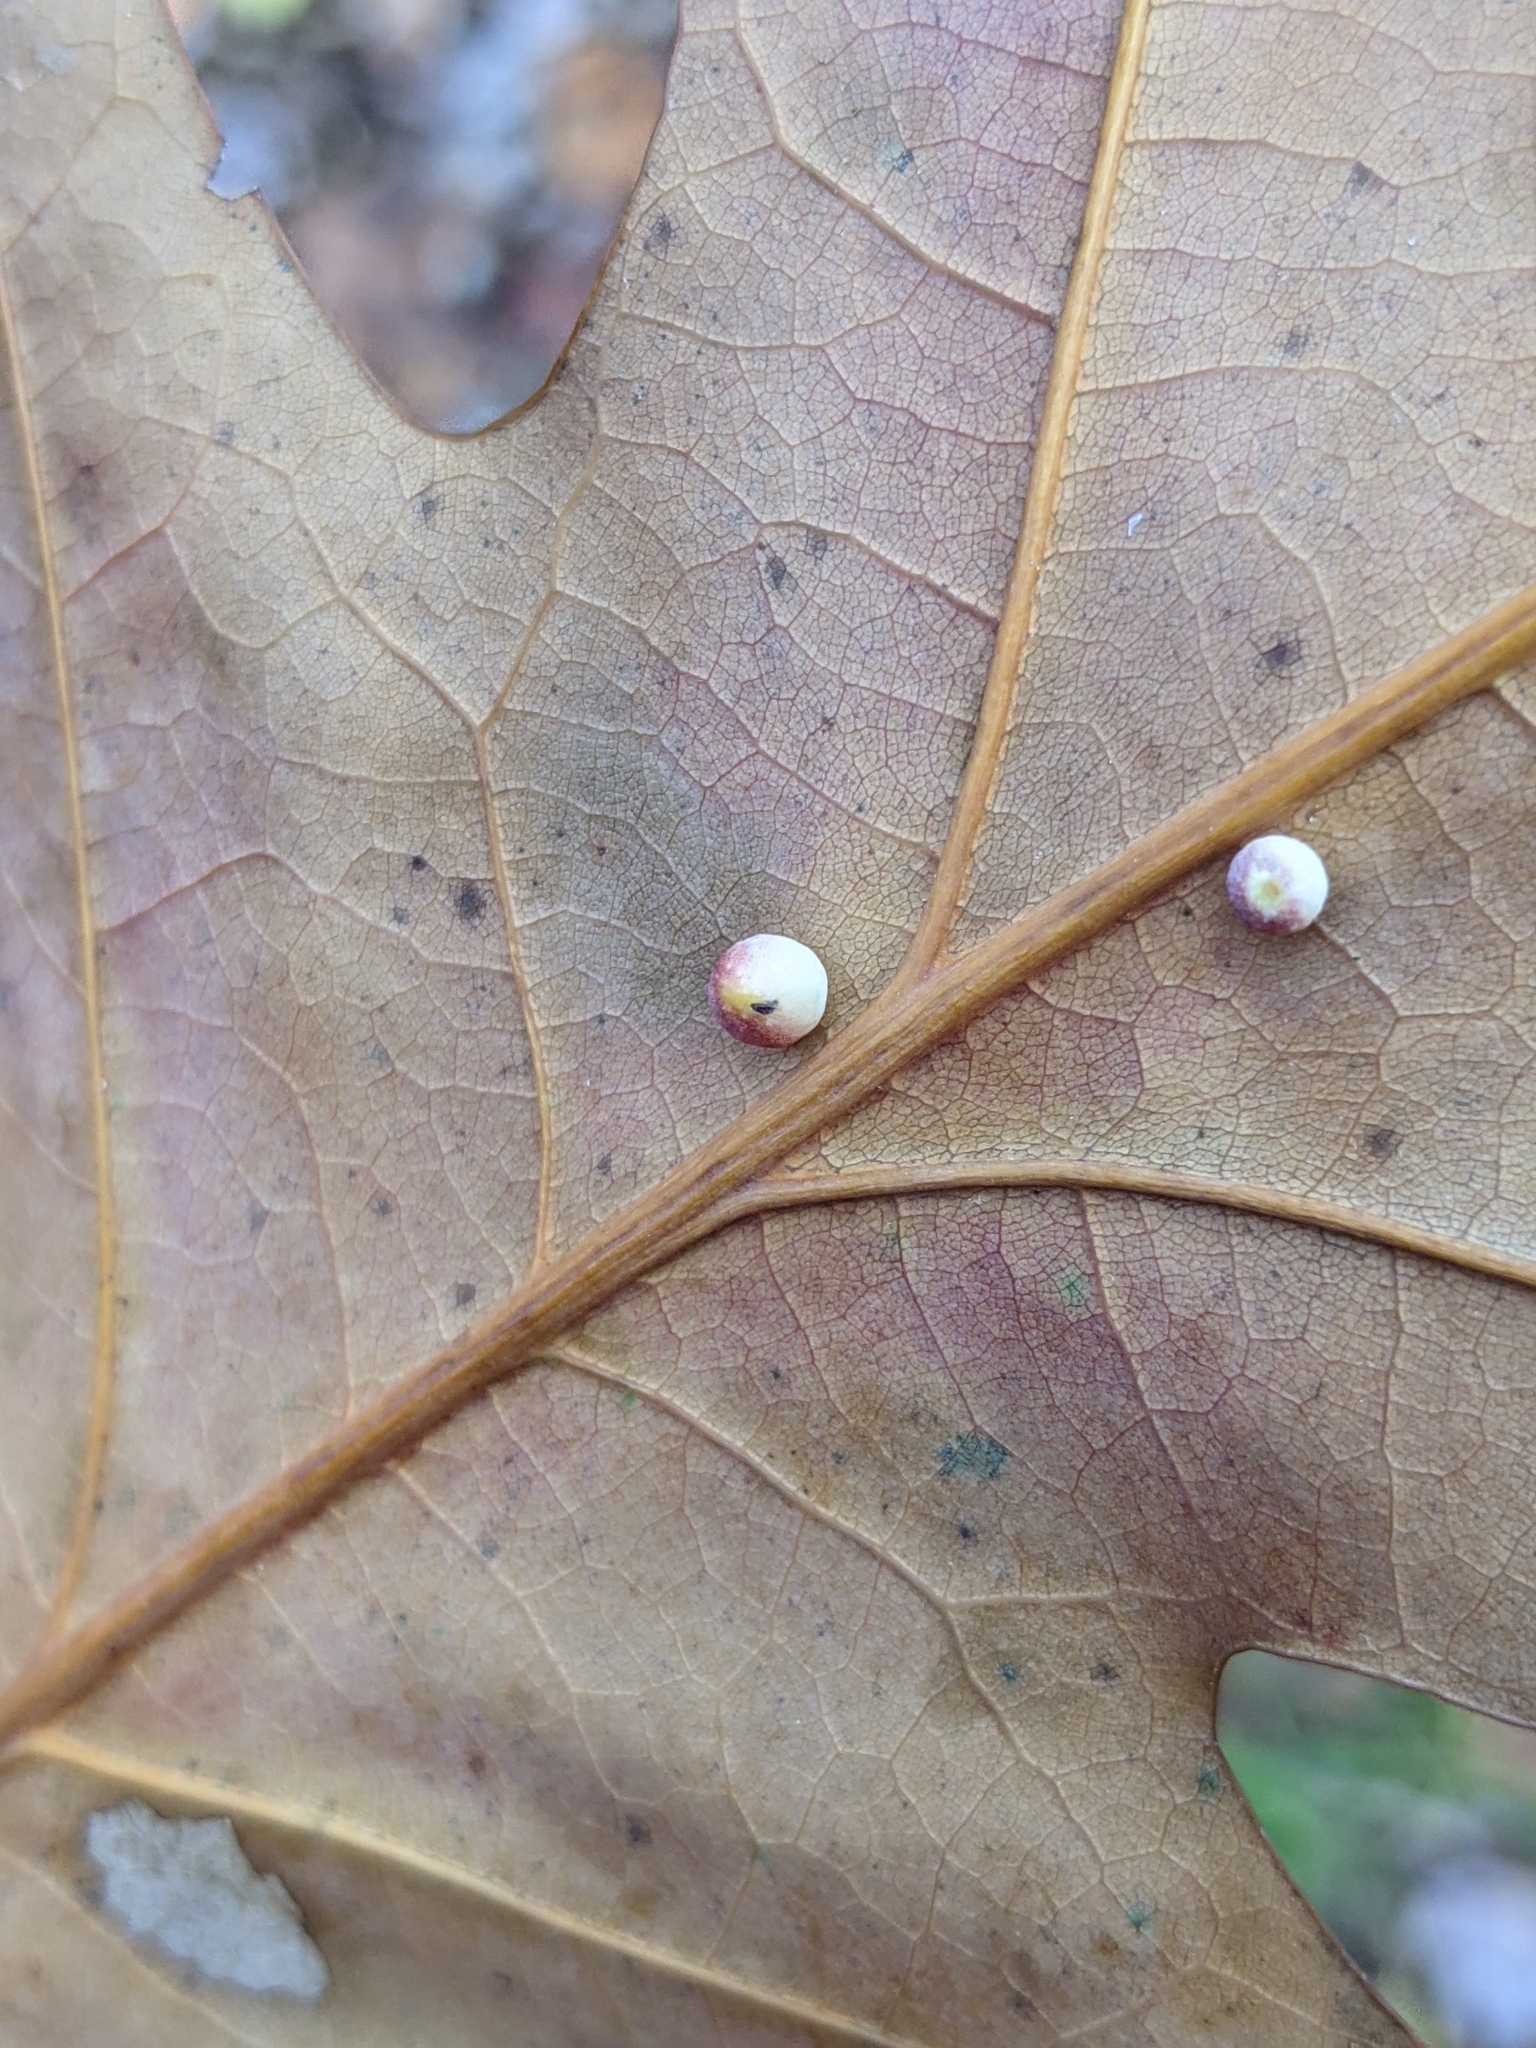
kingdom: Animalia
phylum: Arthropoda
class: Insecta
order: Hymenoptera
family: Cynipidae
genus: Zopheroteras
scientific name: Zopheroteras
